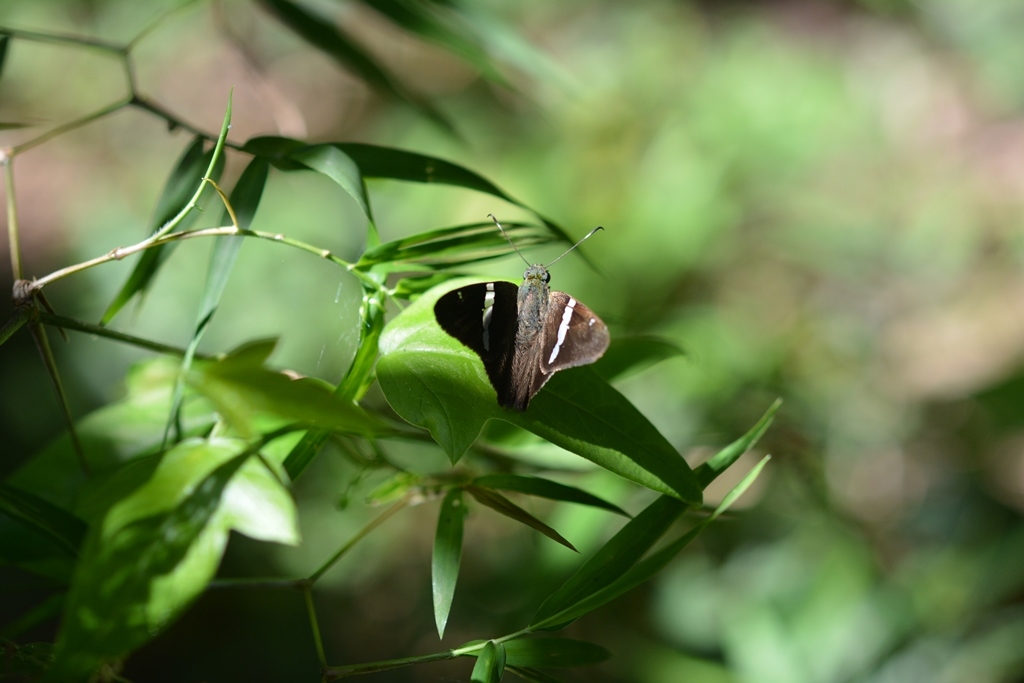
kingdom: Animalia
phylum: Arthropoda
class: Insecta
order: Lepidoptera
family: Hesperiidae
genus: Autochton
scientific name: Autochton neis
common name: Broad-banded skipper
